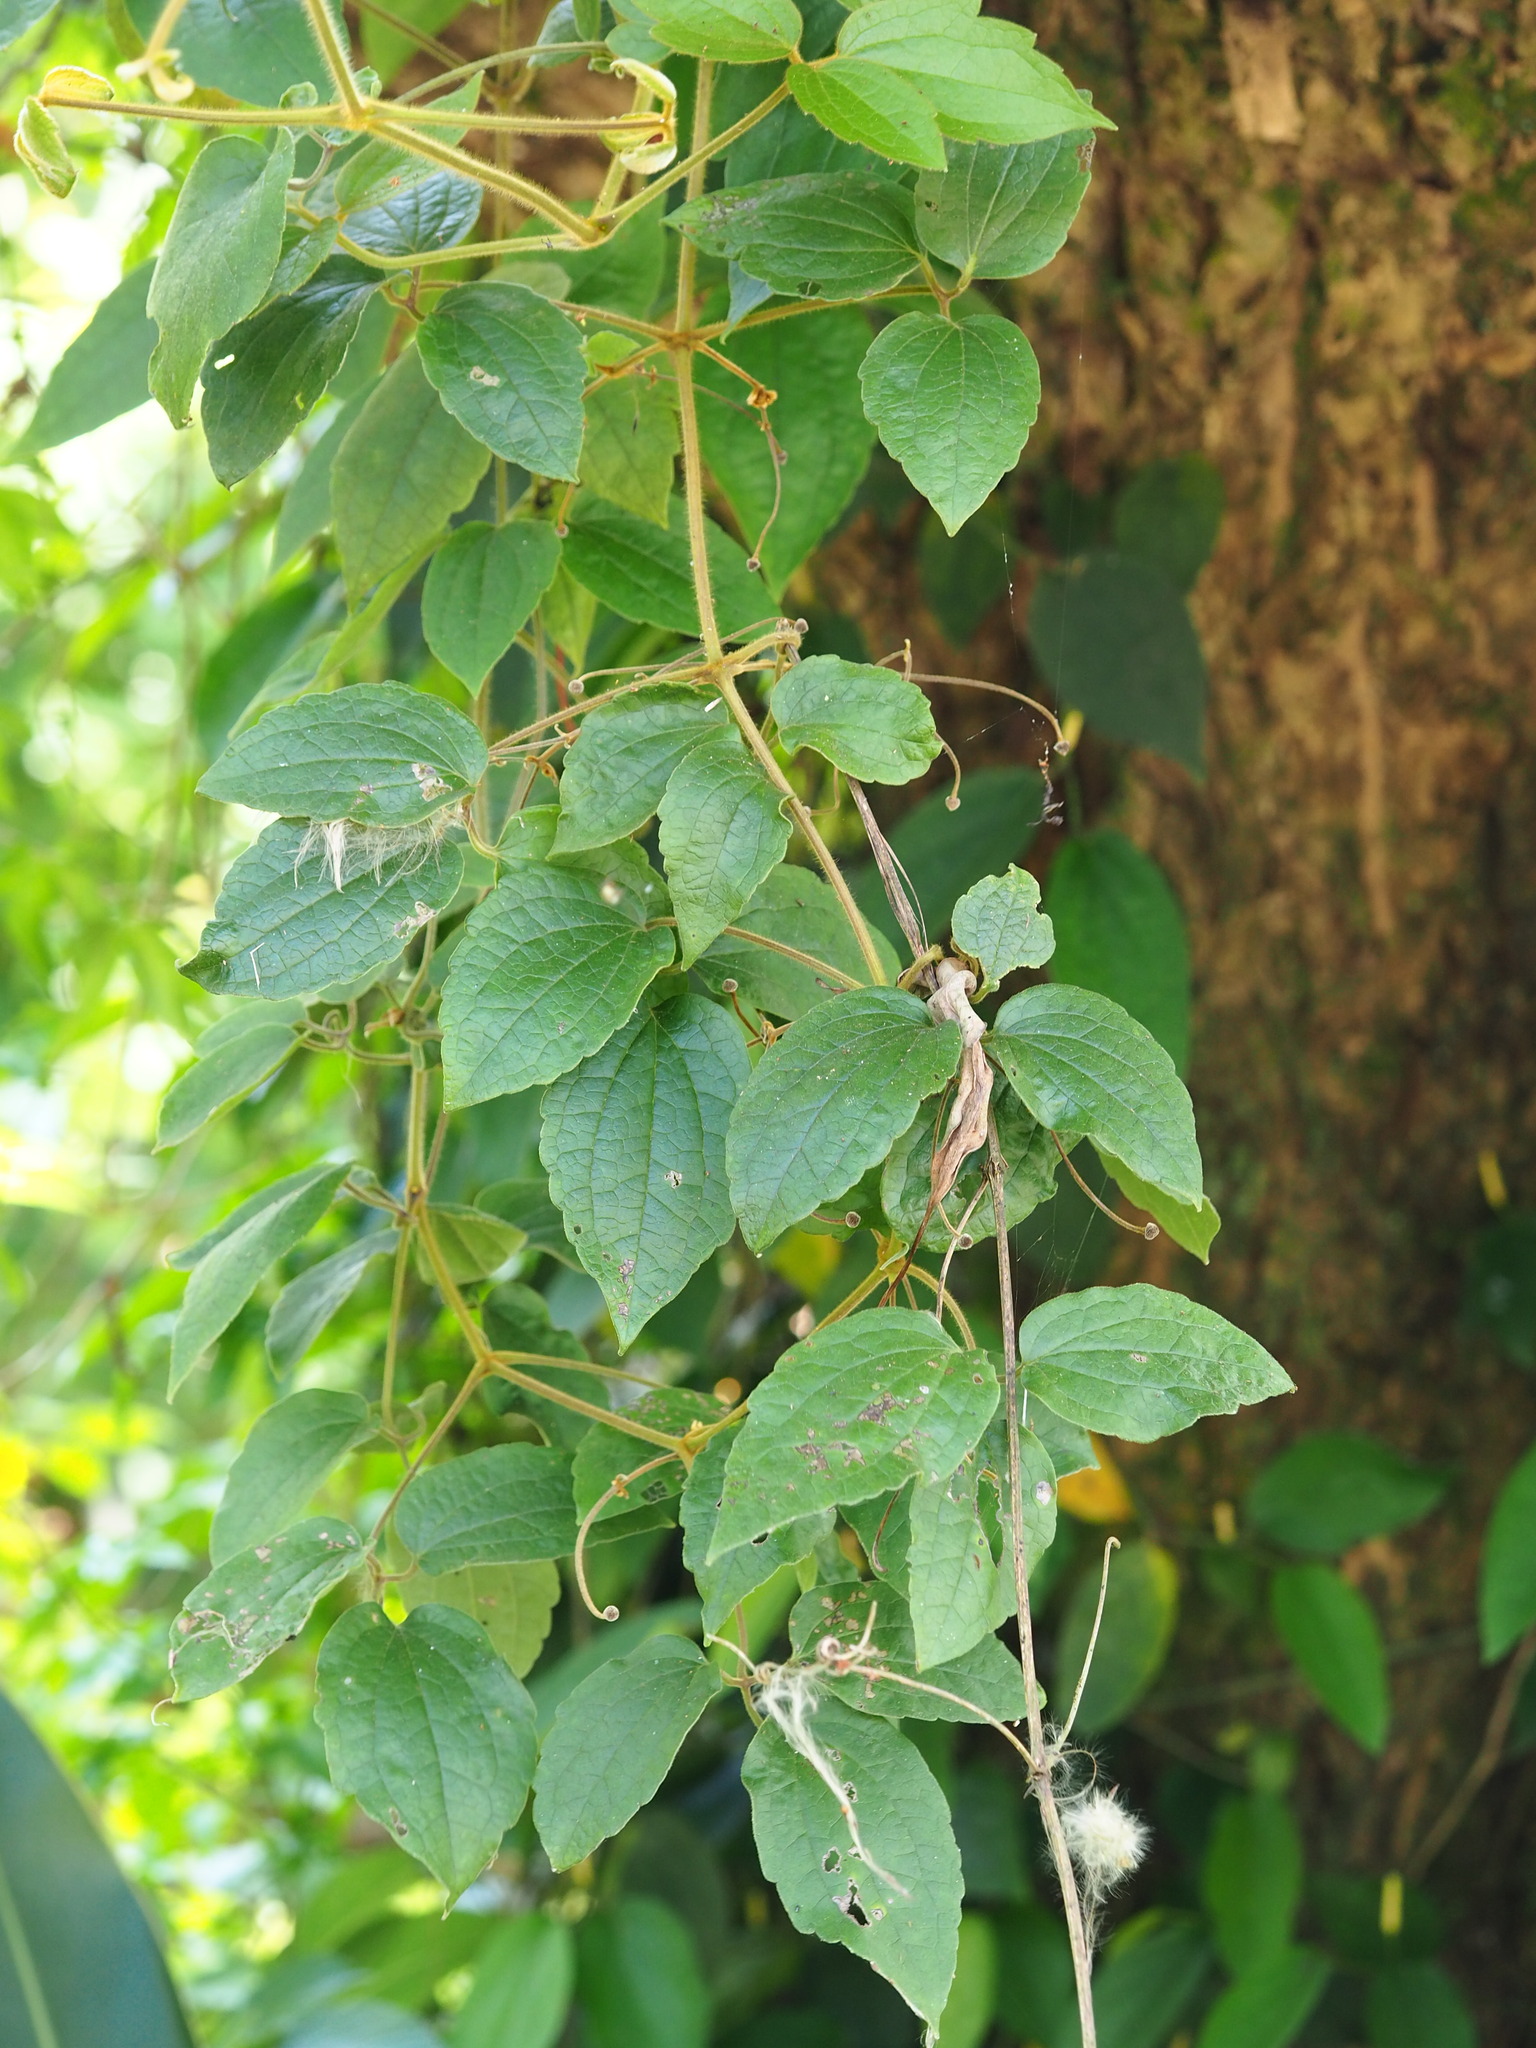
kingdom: Plantae
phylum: Tracheophyta
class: Magnoliopsida
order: Ranunculales
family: Ranunculaceae
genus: Clematis
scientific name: Clematis leschenaultiana
